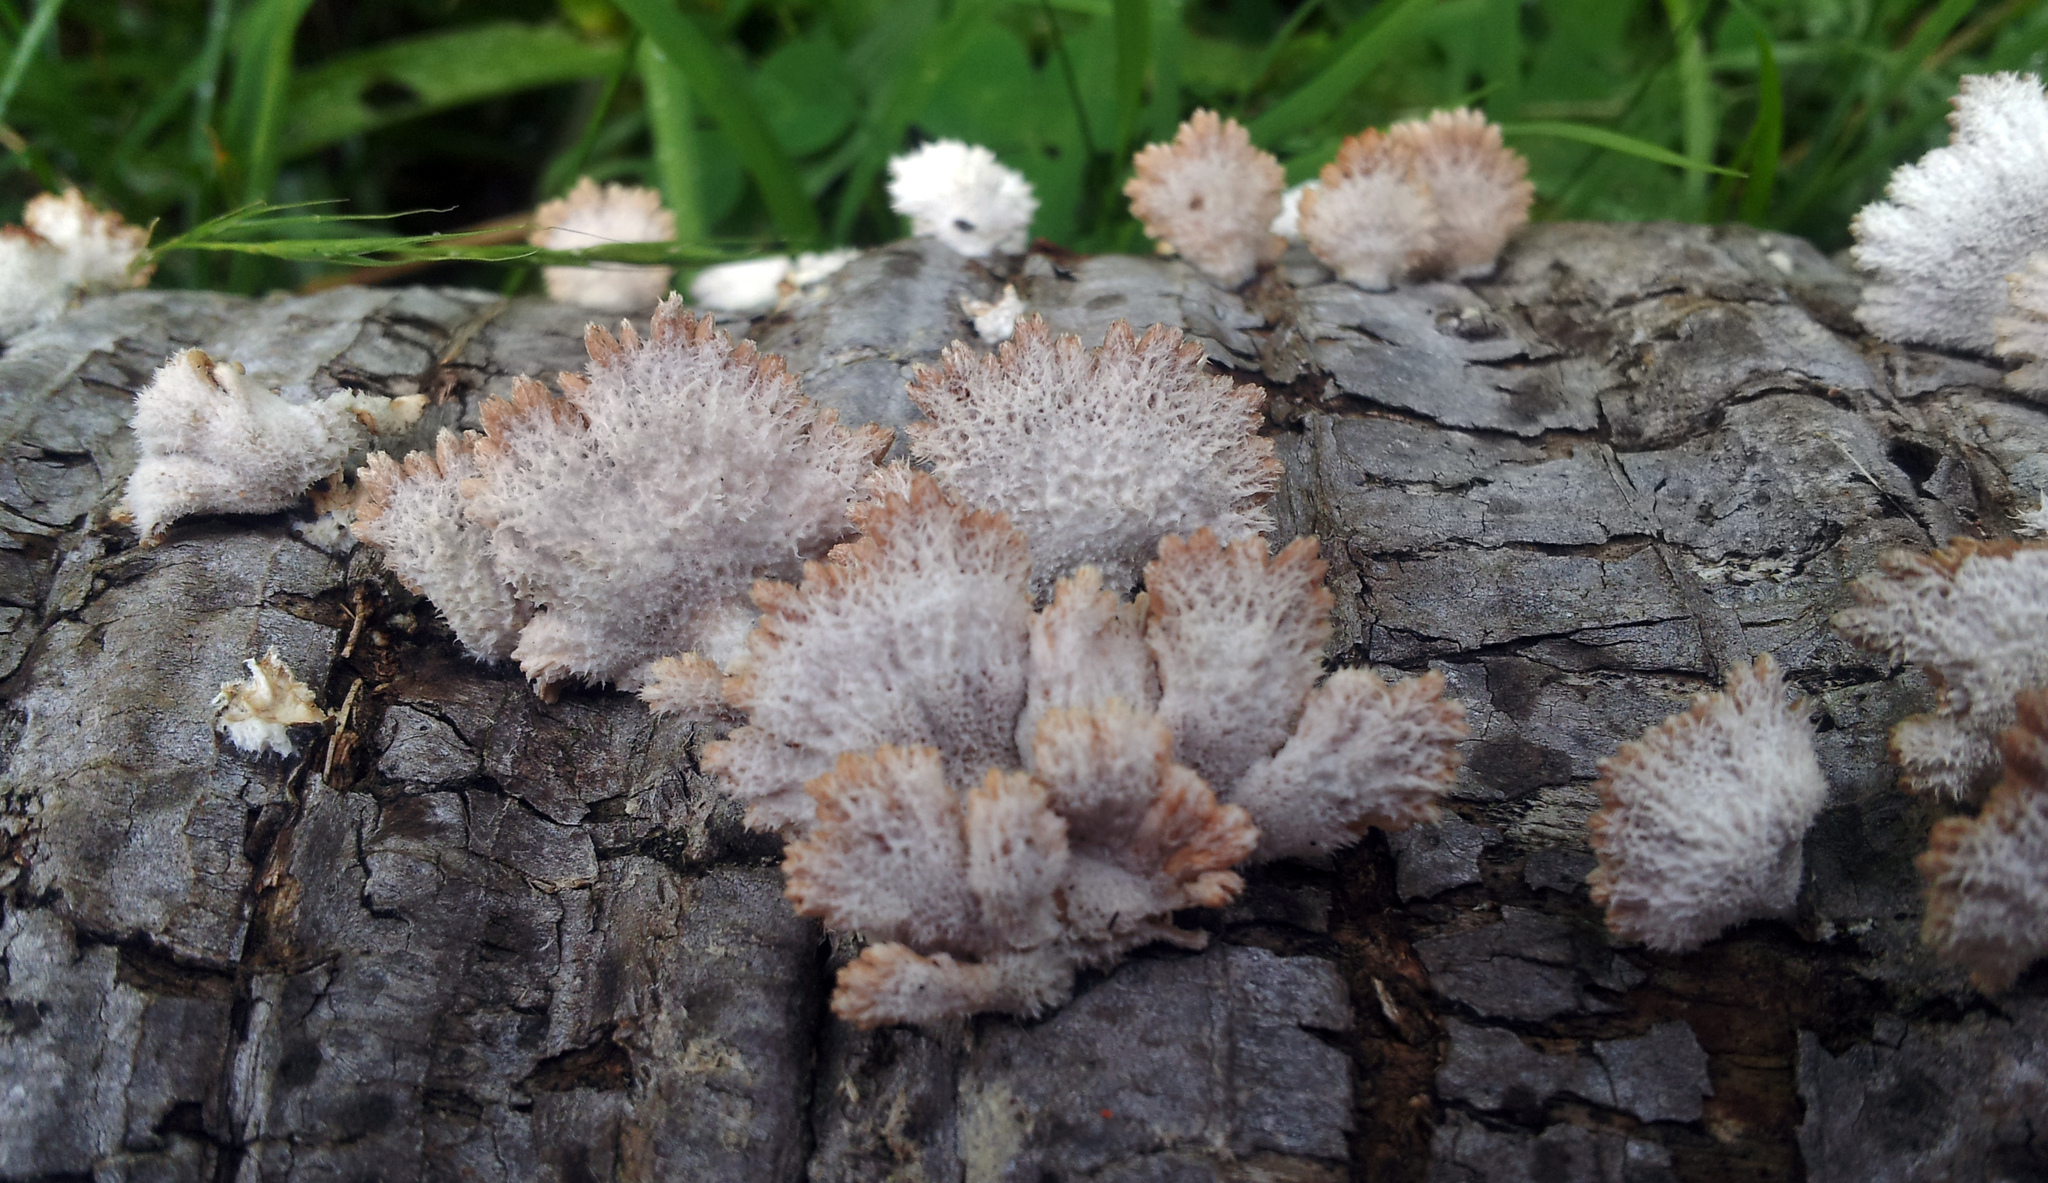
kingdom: Fungi
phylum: Basidiomycota
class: Agaricomycetes
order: Agaricales
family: Schizophyllaceae
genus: Schizophyllum
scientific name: Schizophyllum commune
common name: Common porecrust
